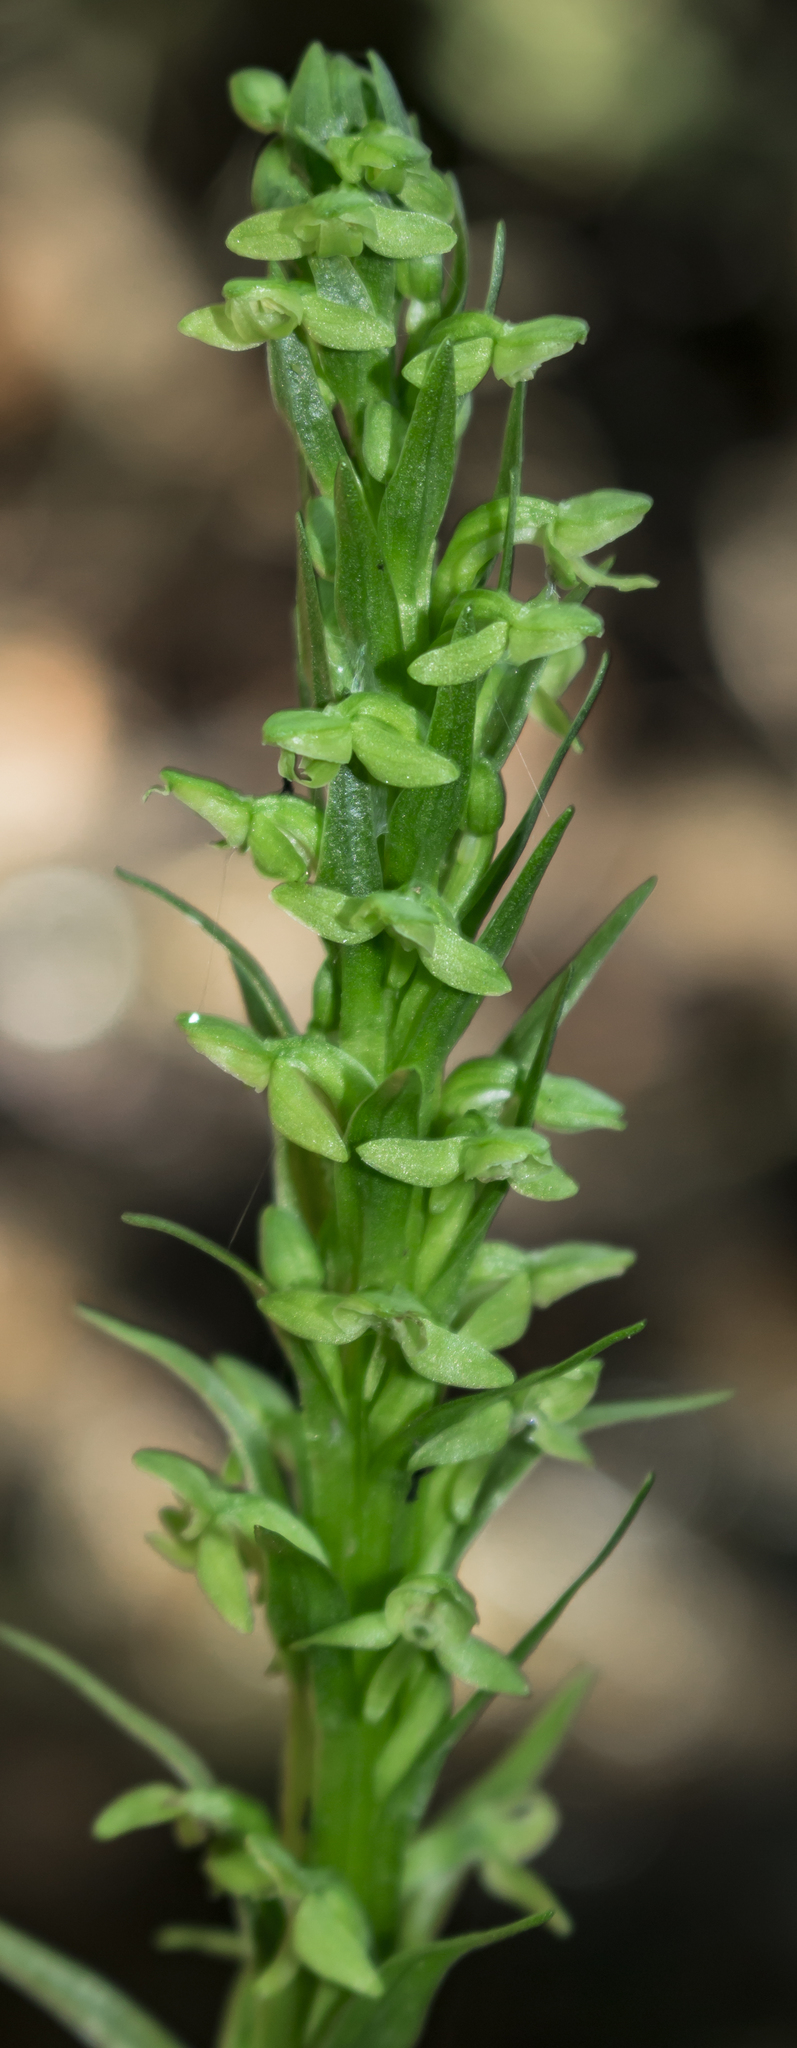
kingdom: Plantae
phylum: Tracheophyta
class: Liliopsida
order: Asparagales
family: Orchidaceae
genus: Platanthera
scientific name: Platanthera aquilonis
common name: Northern green orchid
